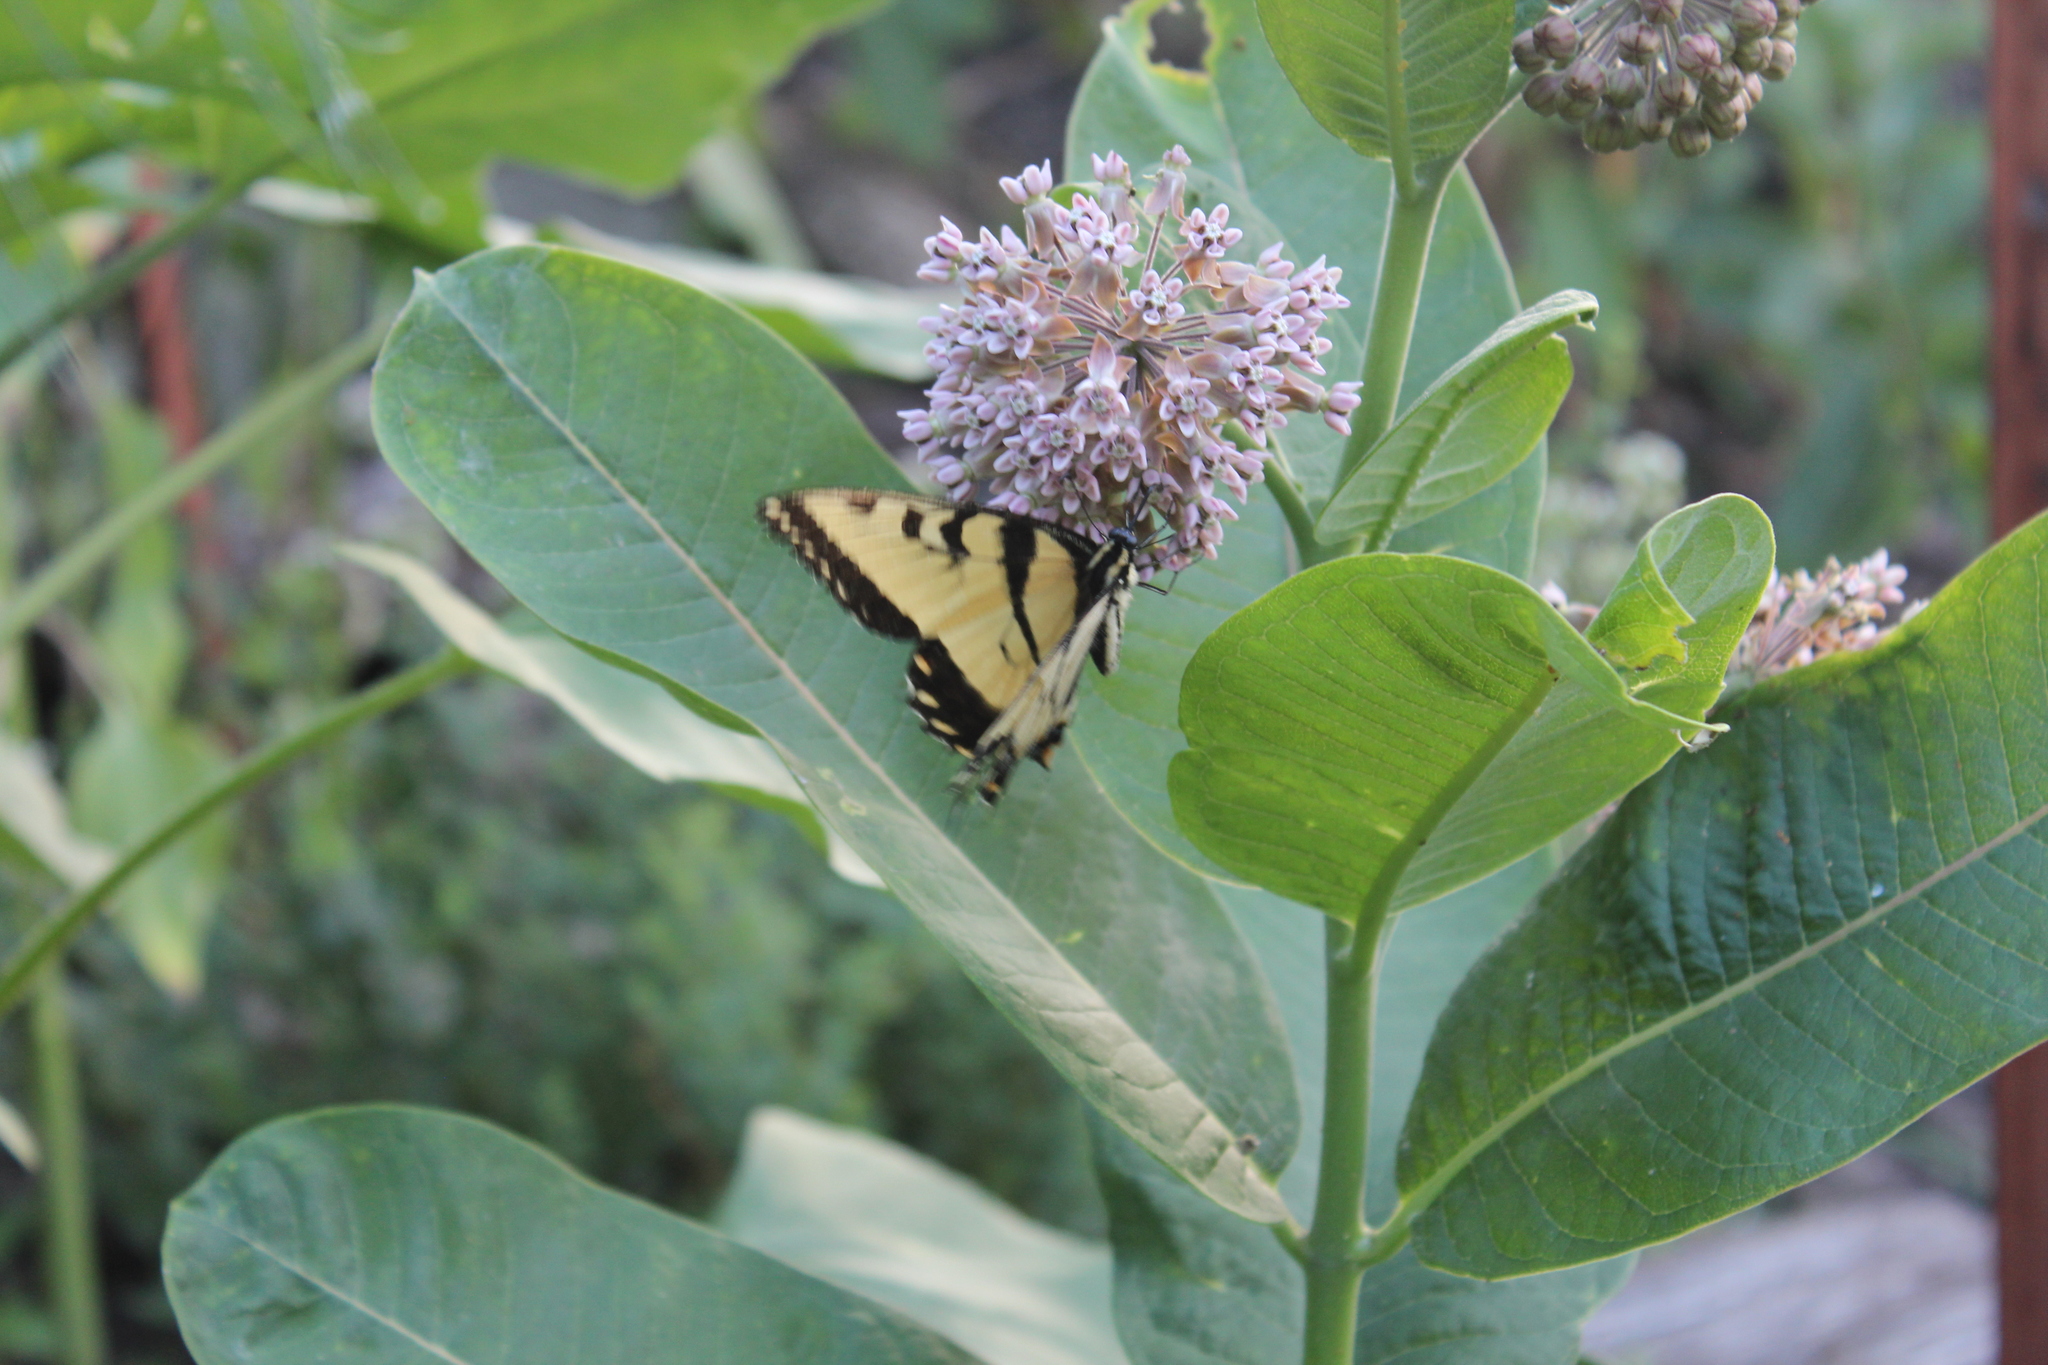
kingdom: Animalia
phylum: Arthropoda
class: Insecta
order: Lepidoptera
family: Papilionidae
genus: Papilio
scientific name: Papilio glaucus
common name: Tiger swallowtail
